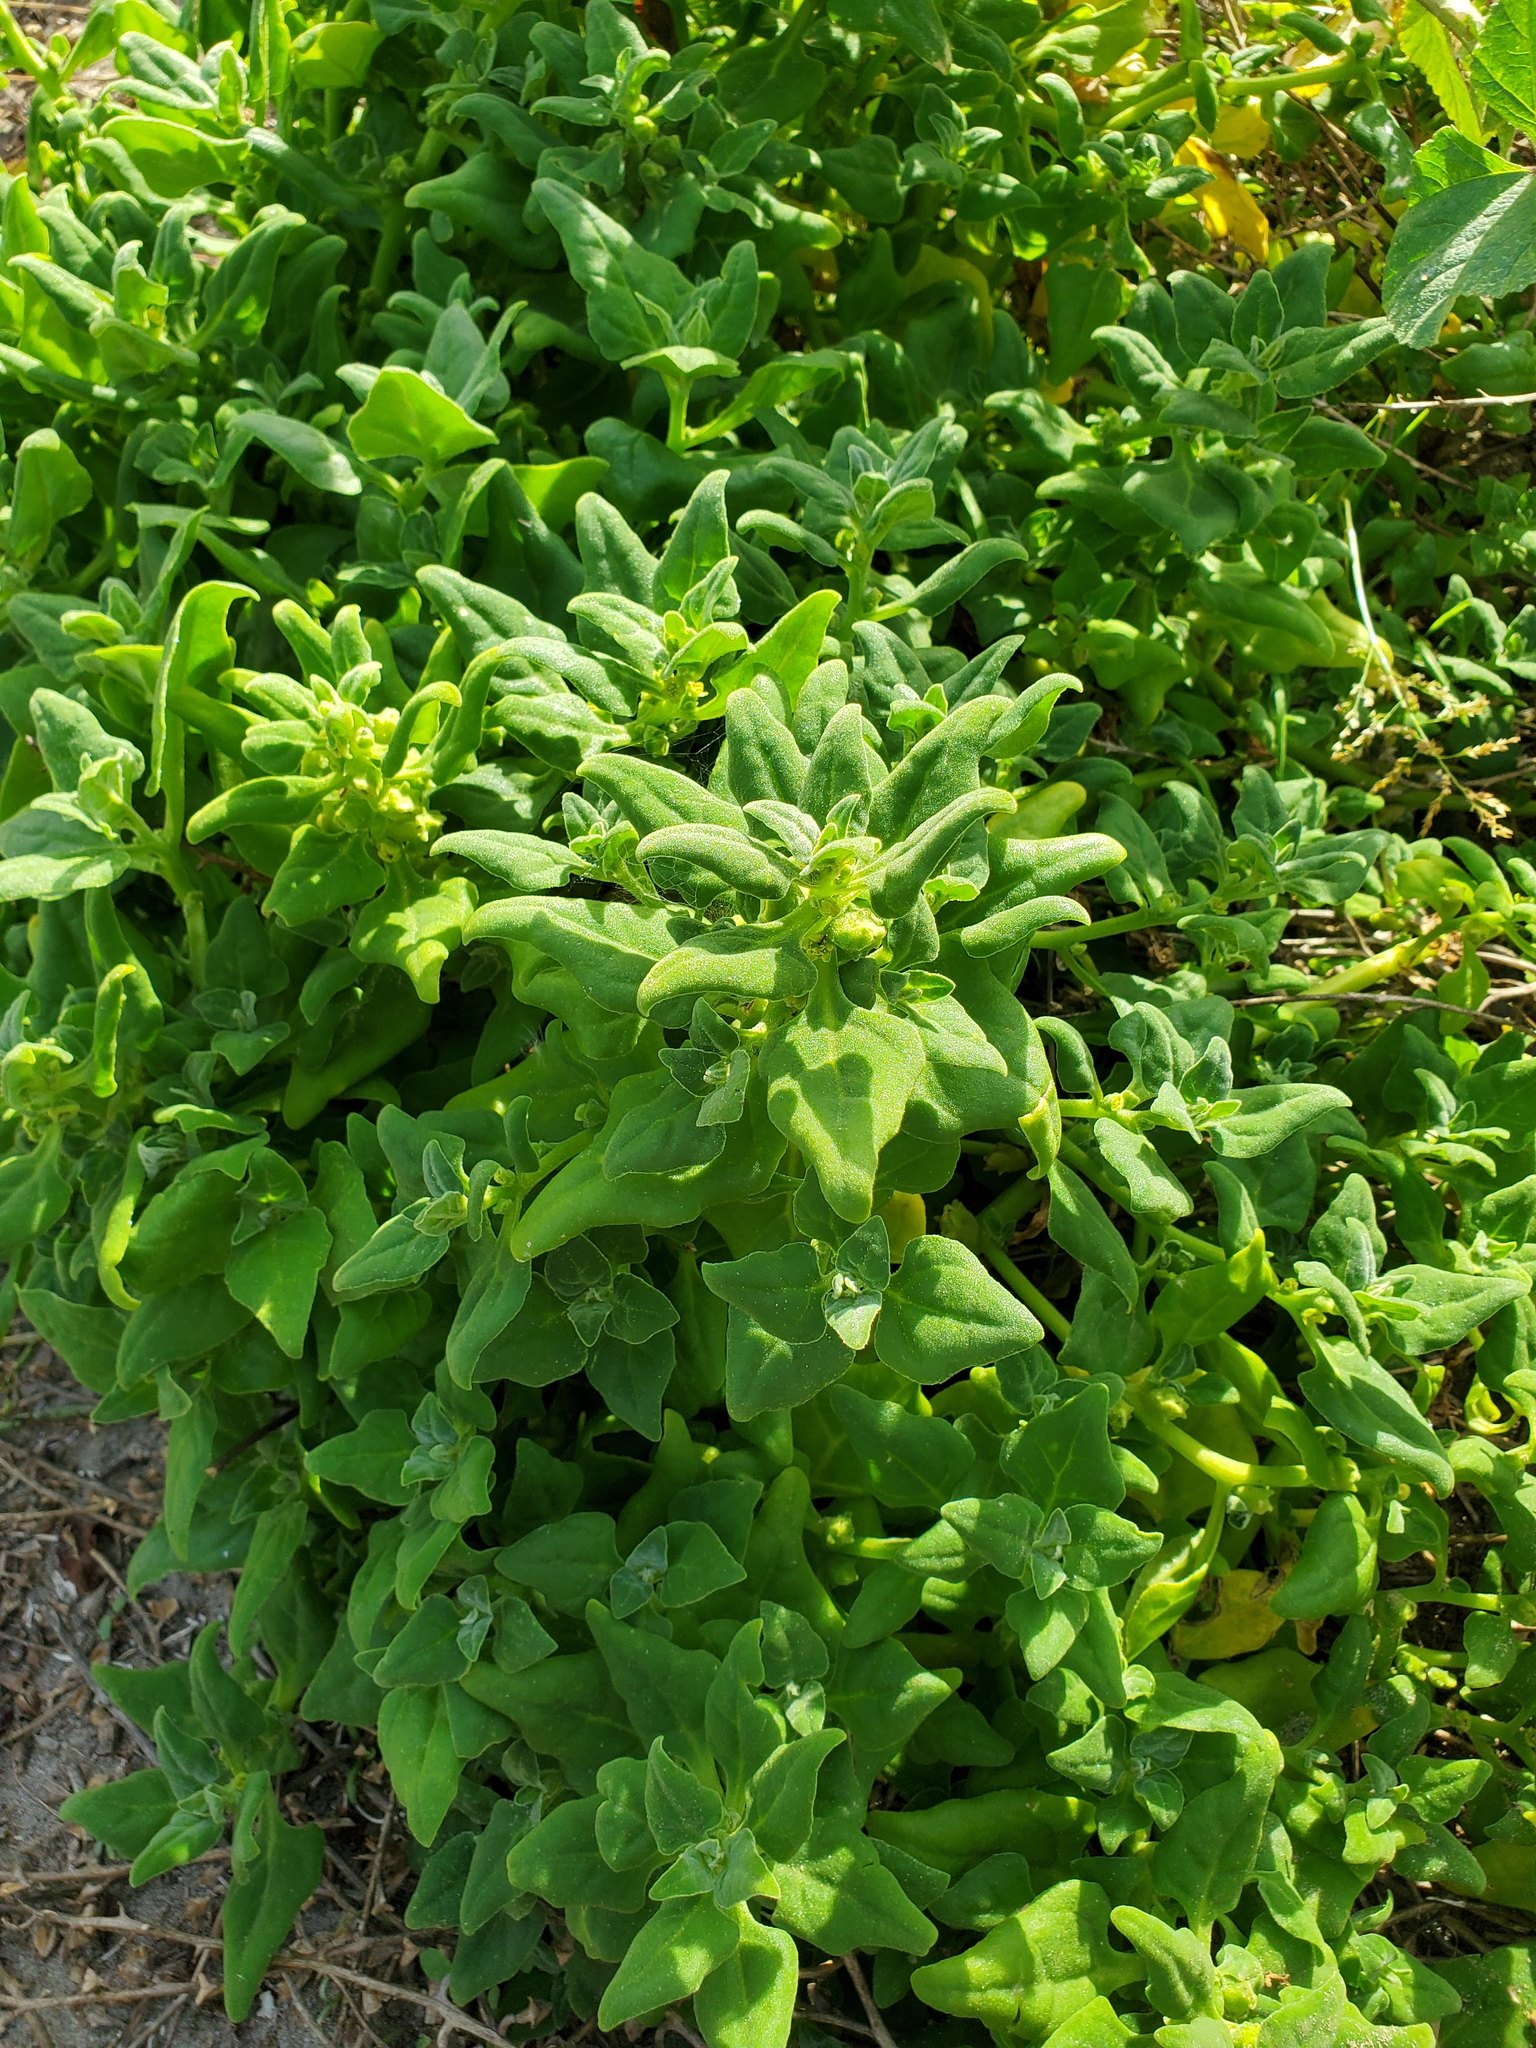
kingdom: Plantae
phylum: Tracheophyta
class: Magnoliopsida
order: Caryophyllales
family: Aizoaceae
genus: Tetragonia
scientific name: Tetragonia tetragonoides
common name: New zealand-spinach
